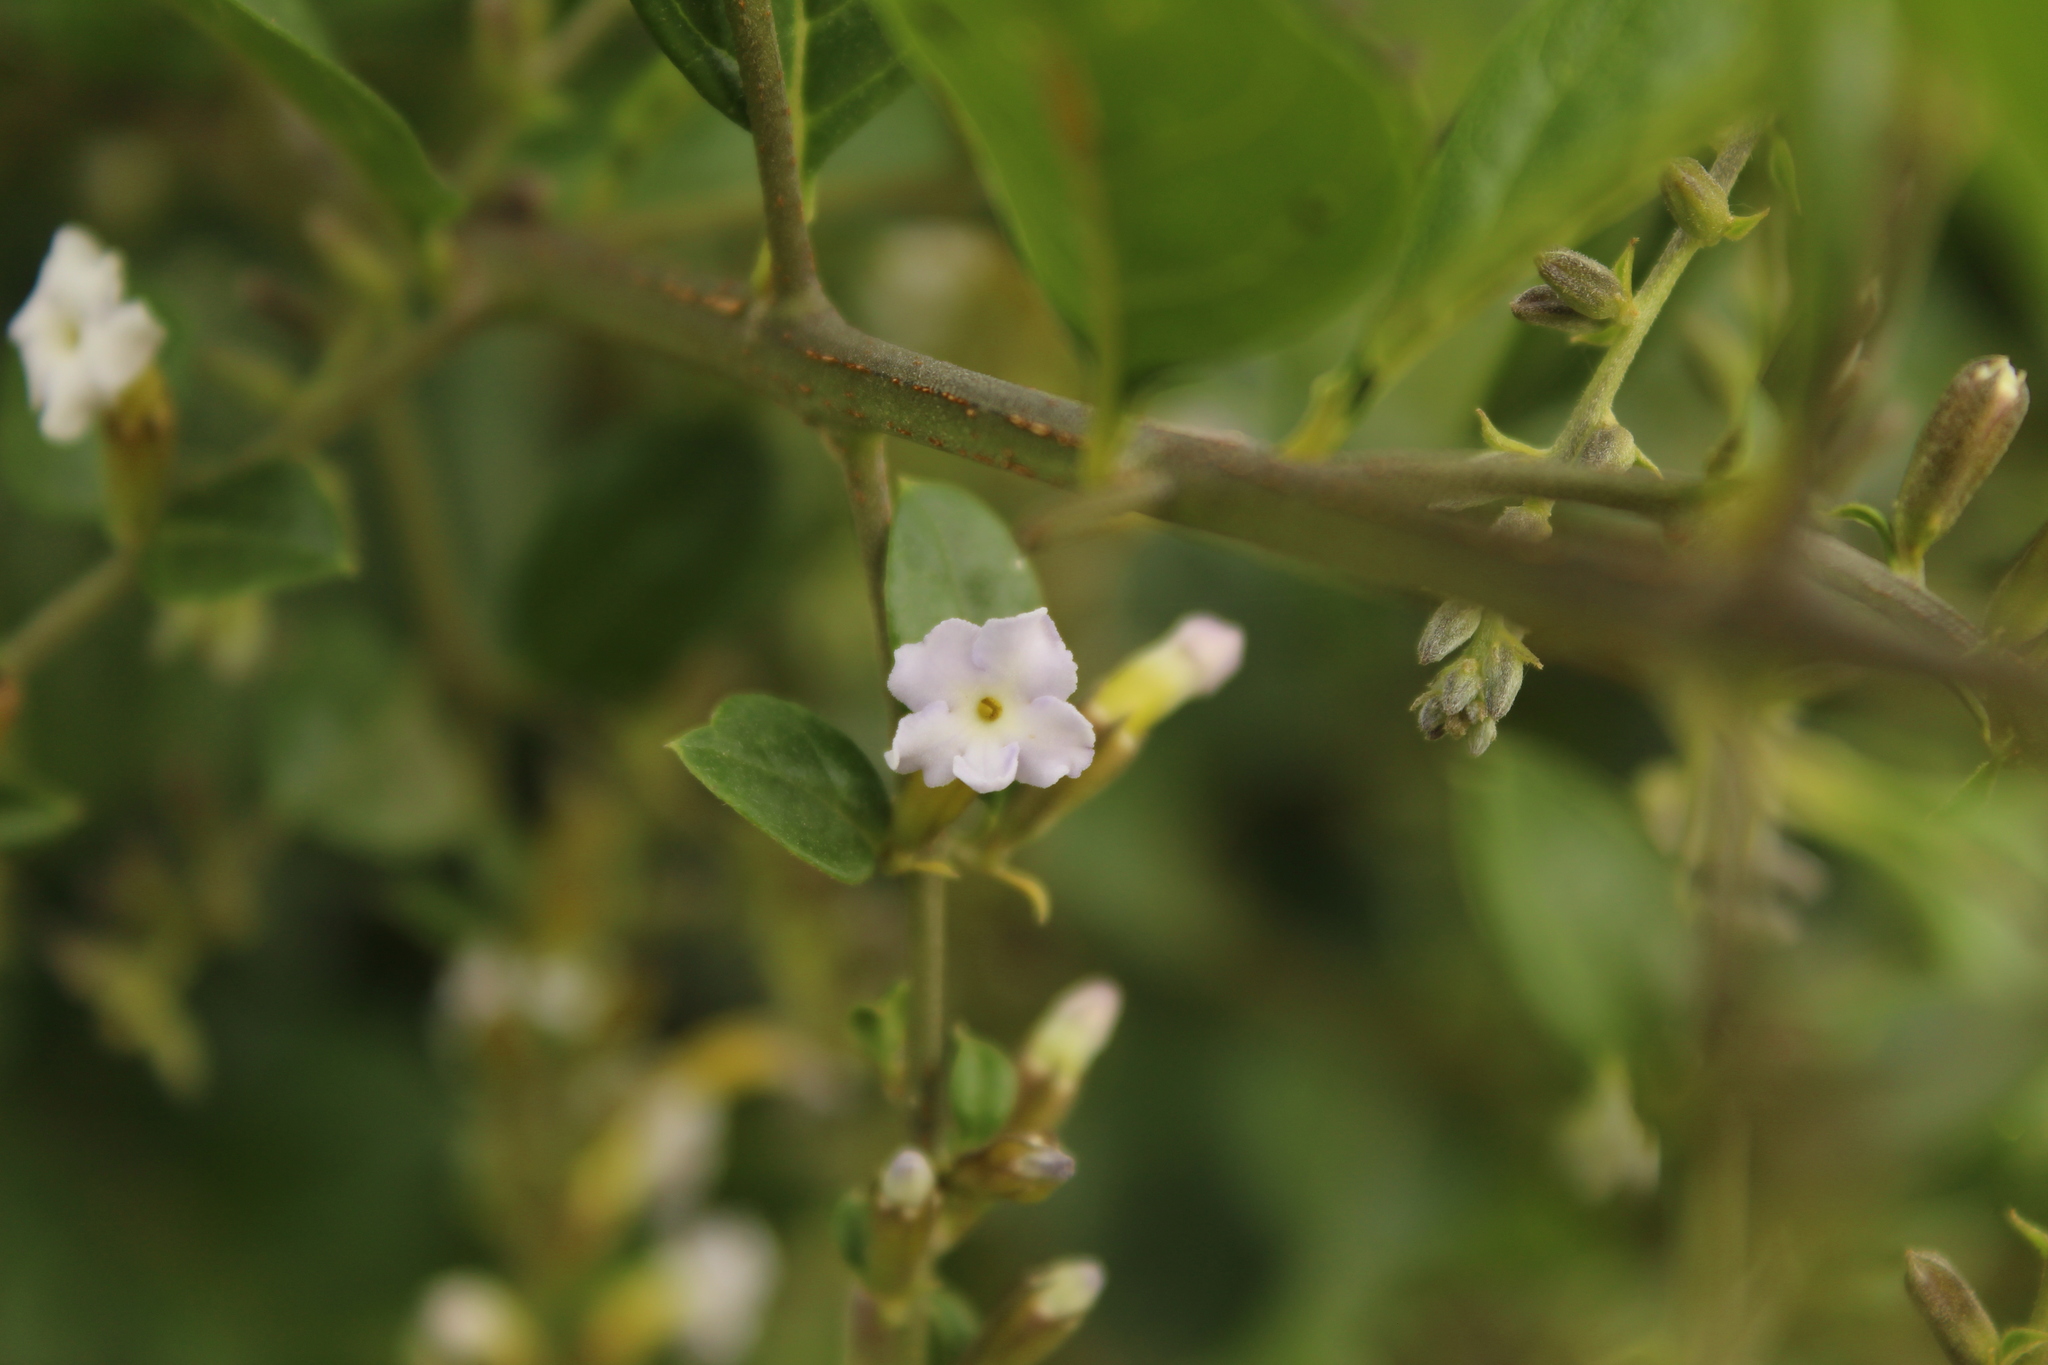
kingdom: Plantae
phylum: Tracheophyta
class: Magnoliopsida
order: Lamiales
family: Verbenaceae
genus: Duranta
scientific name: Duranta mutisii
